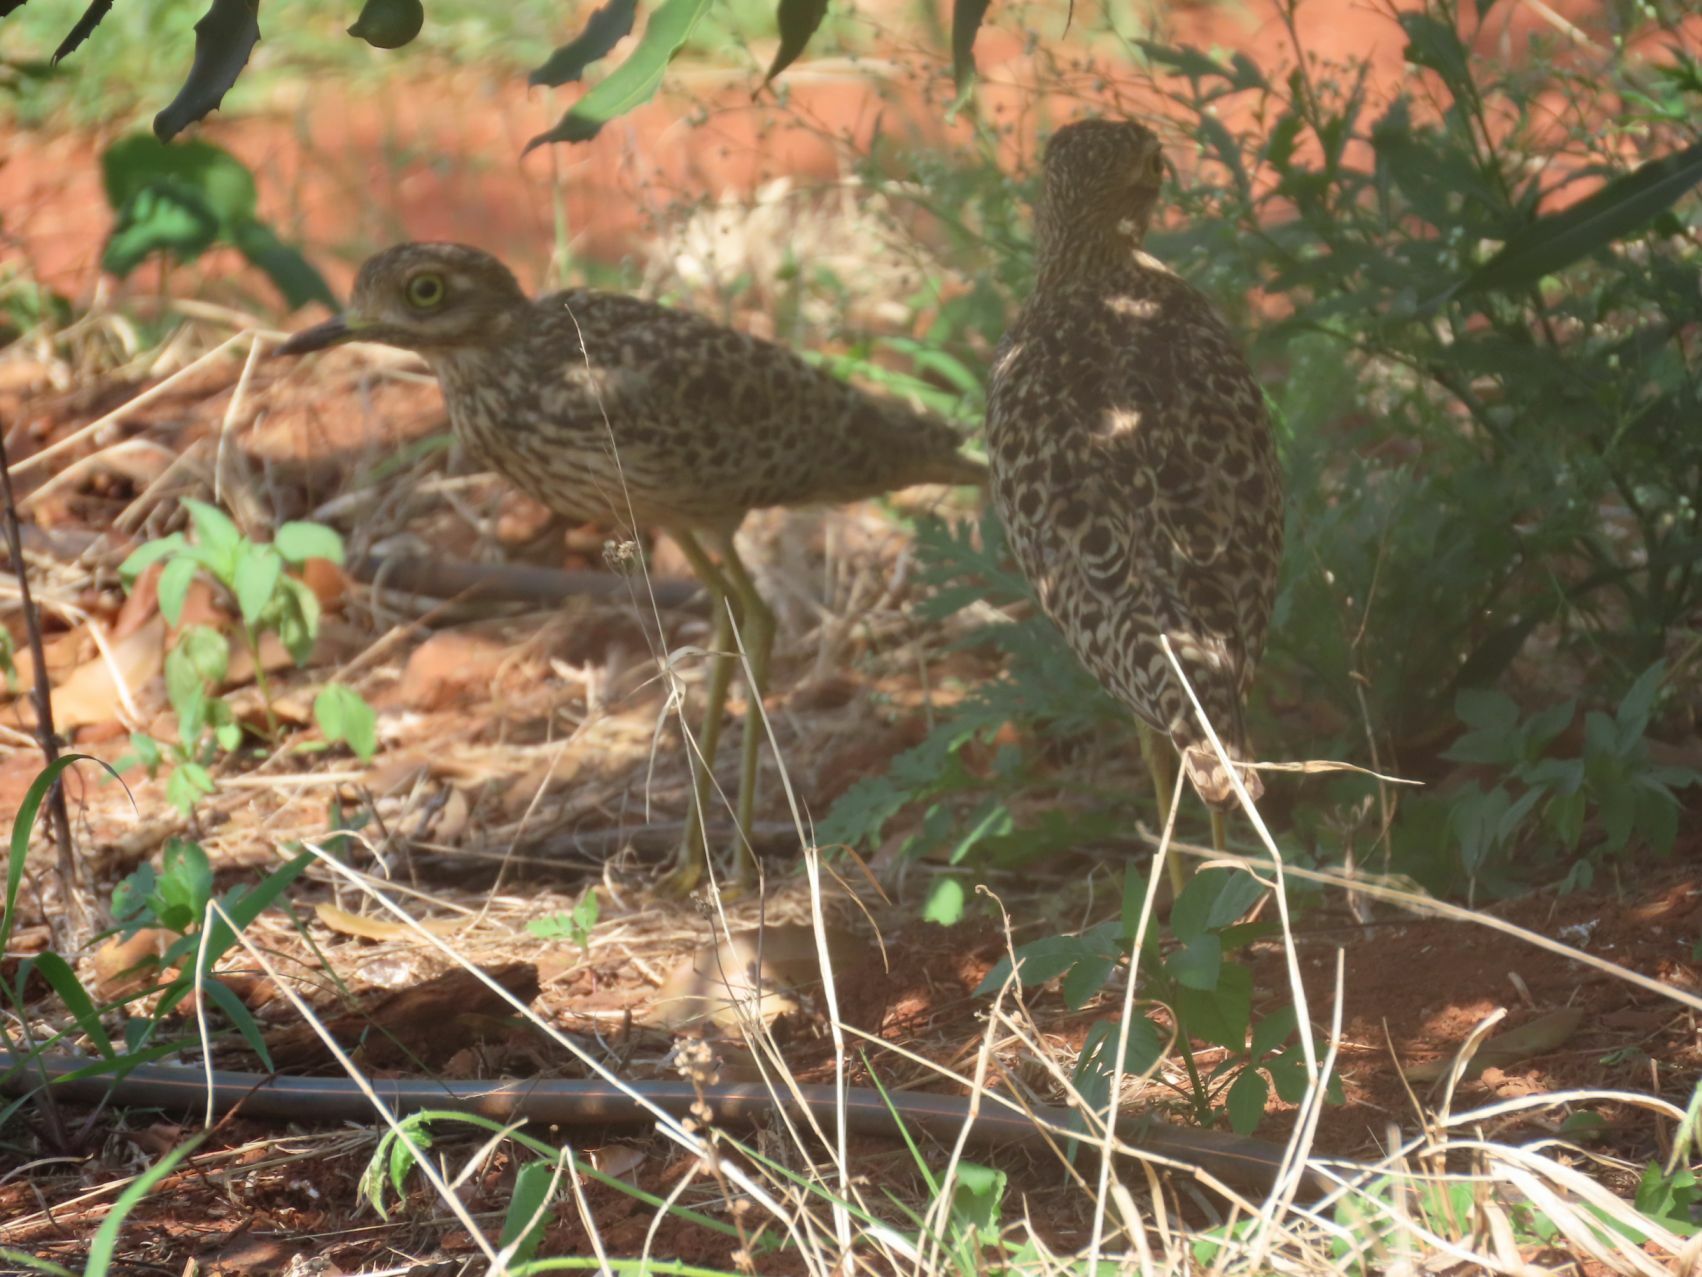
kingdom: Animalia
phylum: Chordata
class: Aves
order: Charadriiformes
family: Burhinidae
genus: Burhinus
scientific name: Burhinus capensis
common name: Spotted thick-knee
